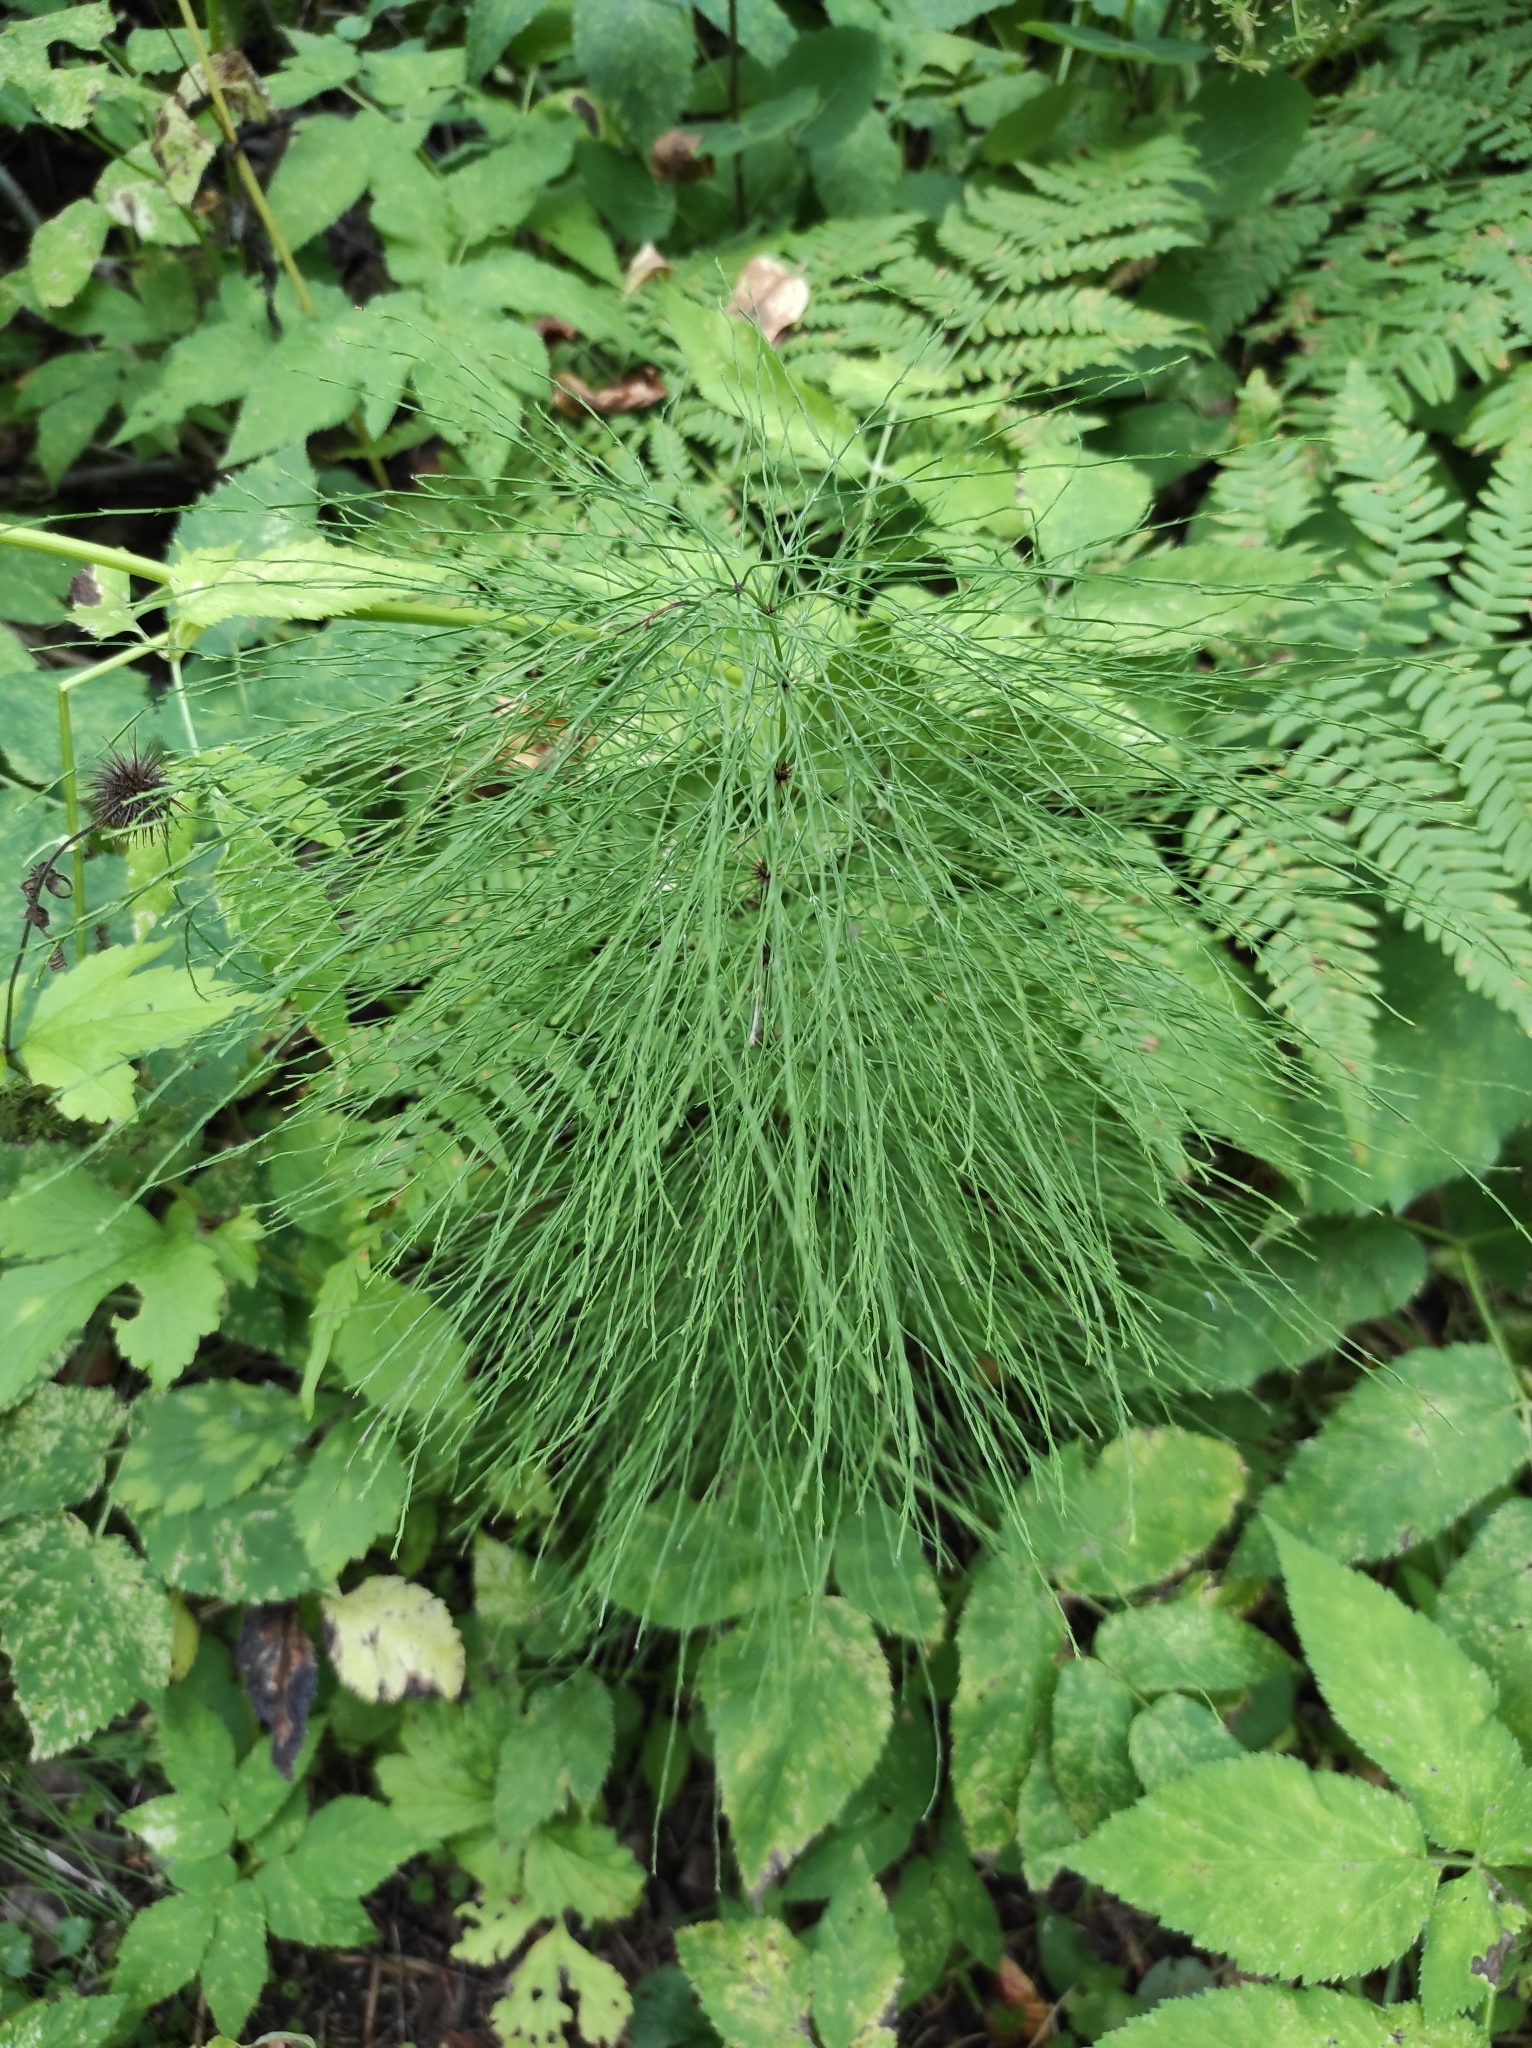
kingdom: Plantae
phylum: Tracheophyta
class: Polypodiopsida
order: Equisetales
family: Equisetaceae
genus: Equisetum
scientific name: Equisetum sylvaticum
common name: Wood horsetail
